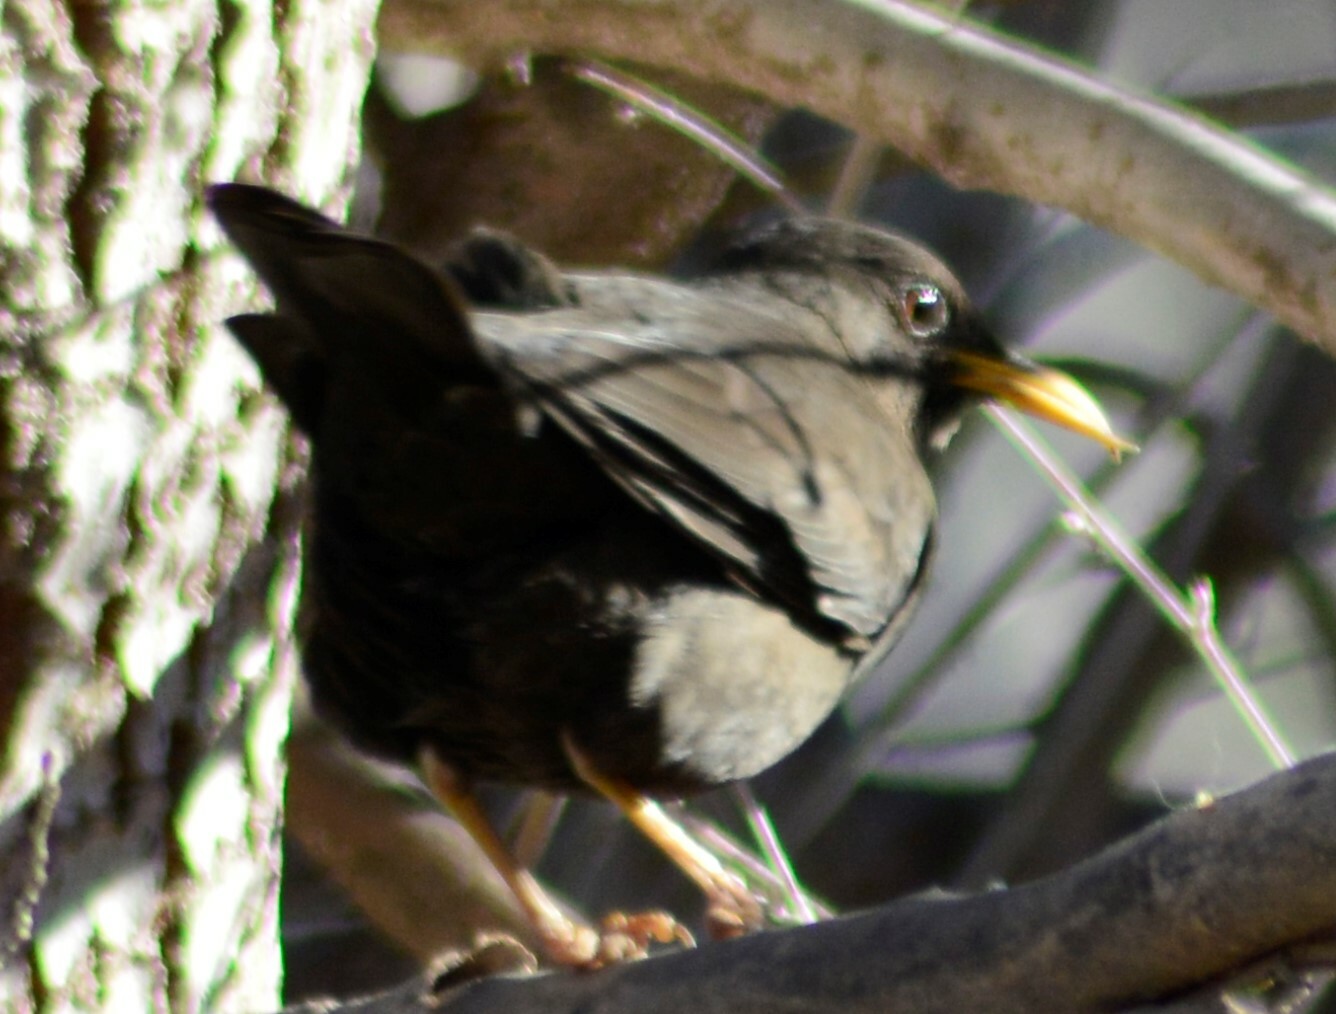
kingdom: Animalia
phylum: Chordata
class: Aves
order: Passeriformes
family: Turdidae
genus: Turdus
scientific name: Turdus chiguanco
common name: Chiguanco thrush
